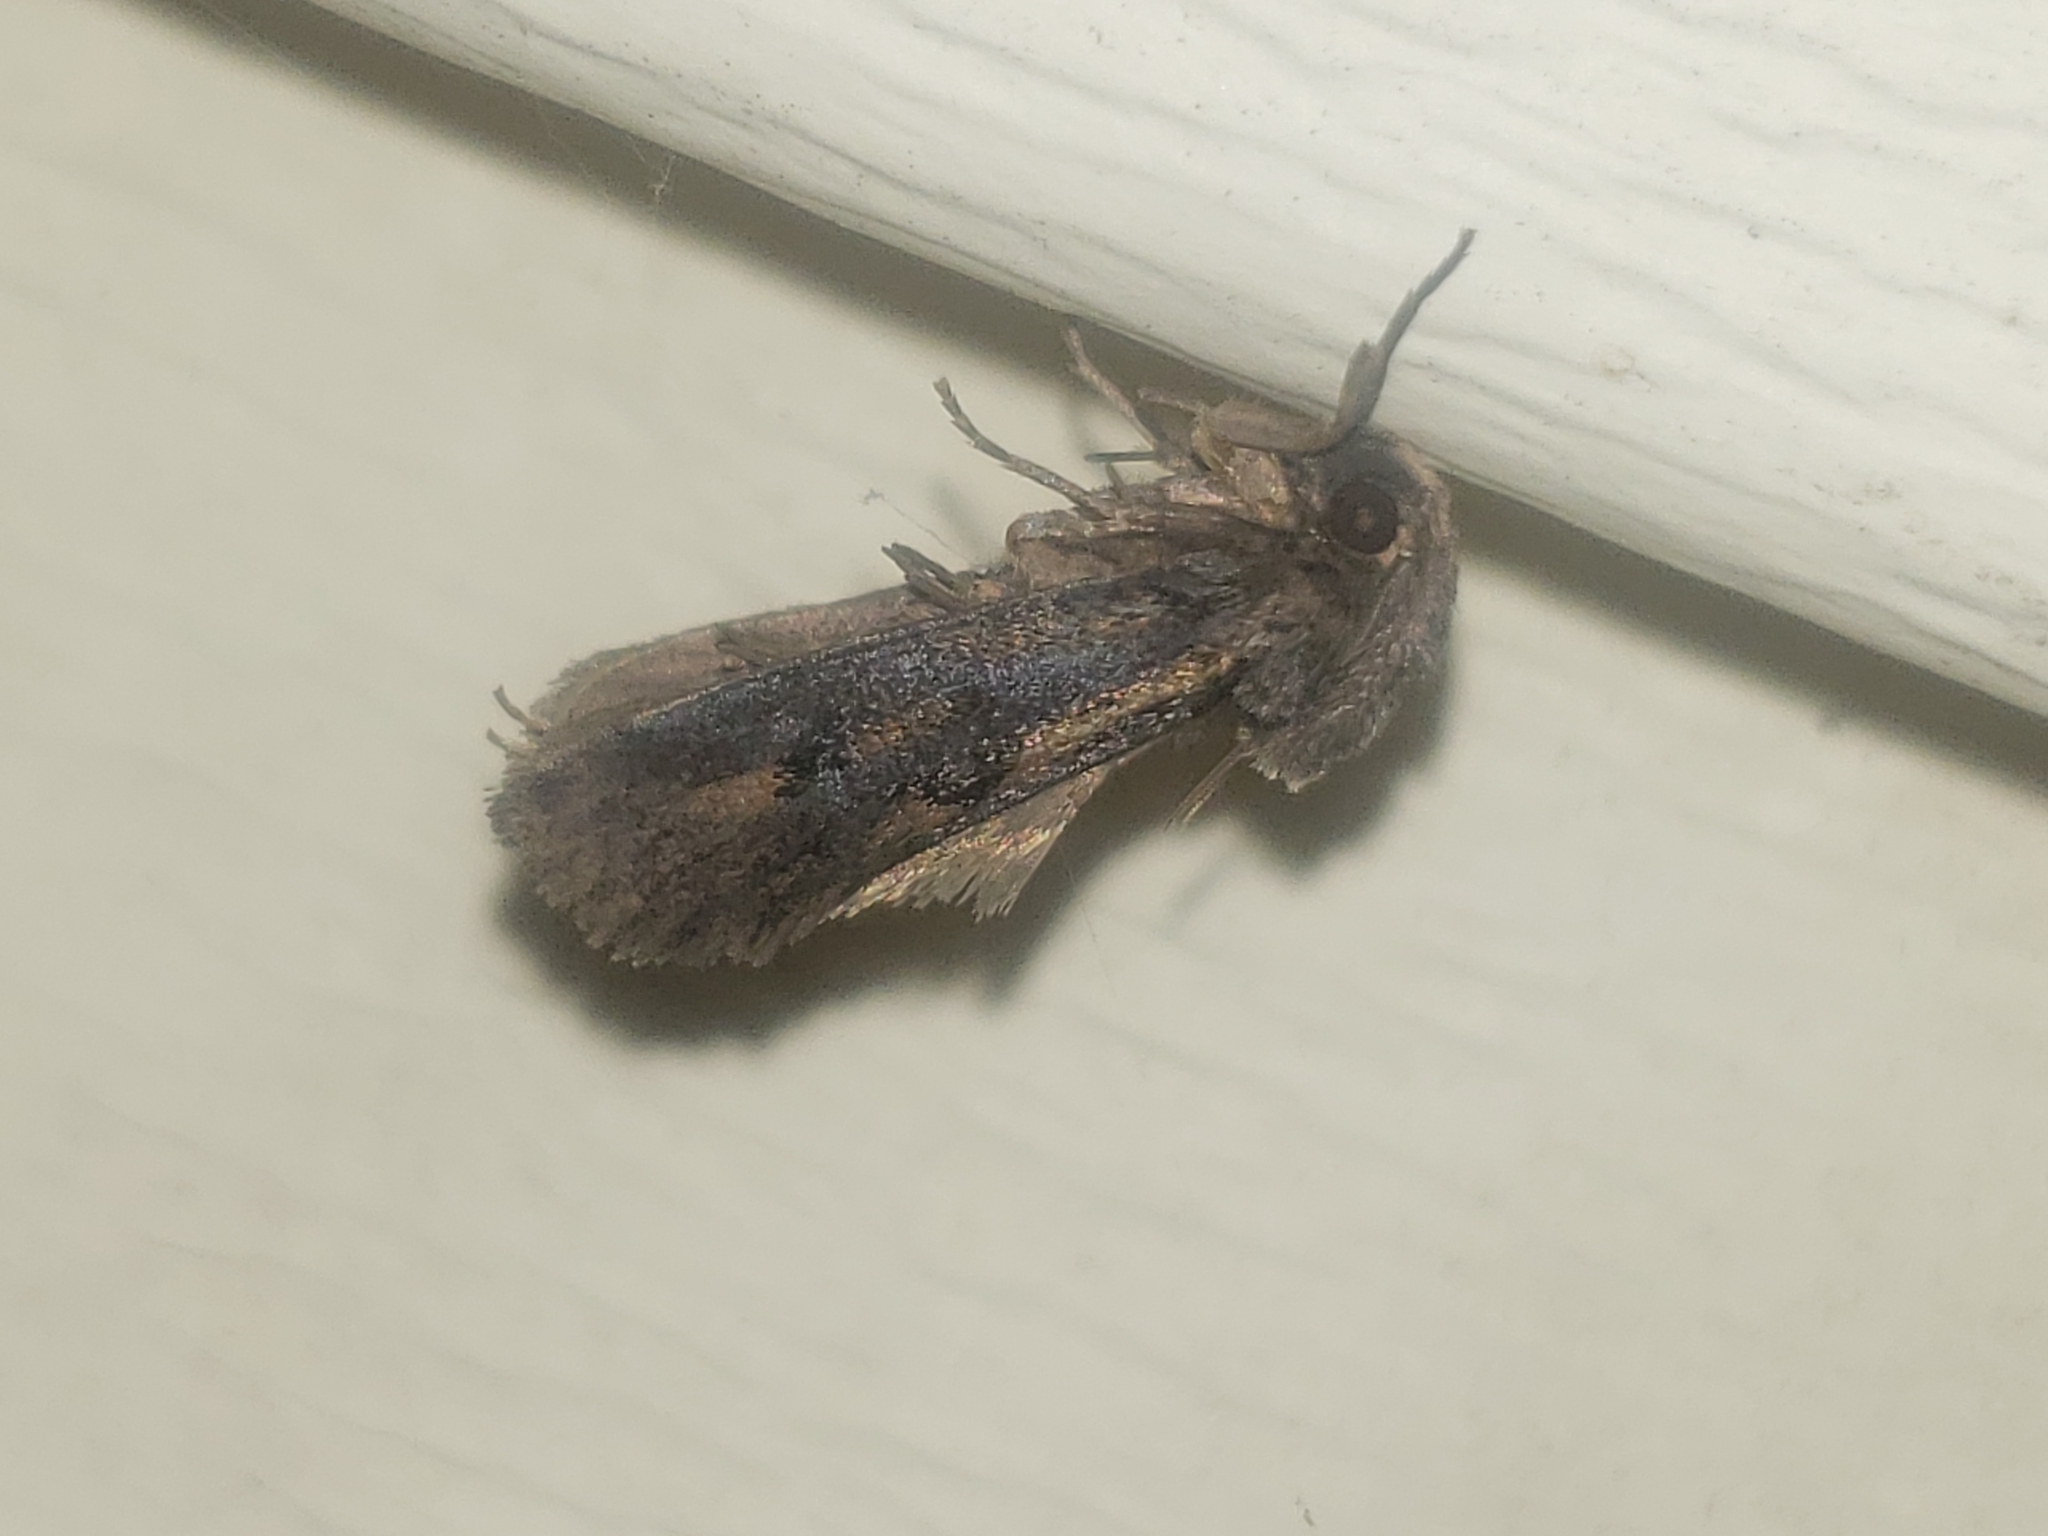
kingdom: Animalia
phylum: Arthropoda
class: Insecta
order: Lepidoptera
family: Tineidae
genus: Acrolophus
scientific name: Acrolophus popeanella
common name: Clemens' grass tubeworm moth
